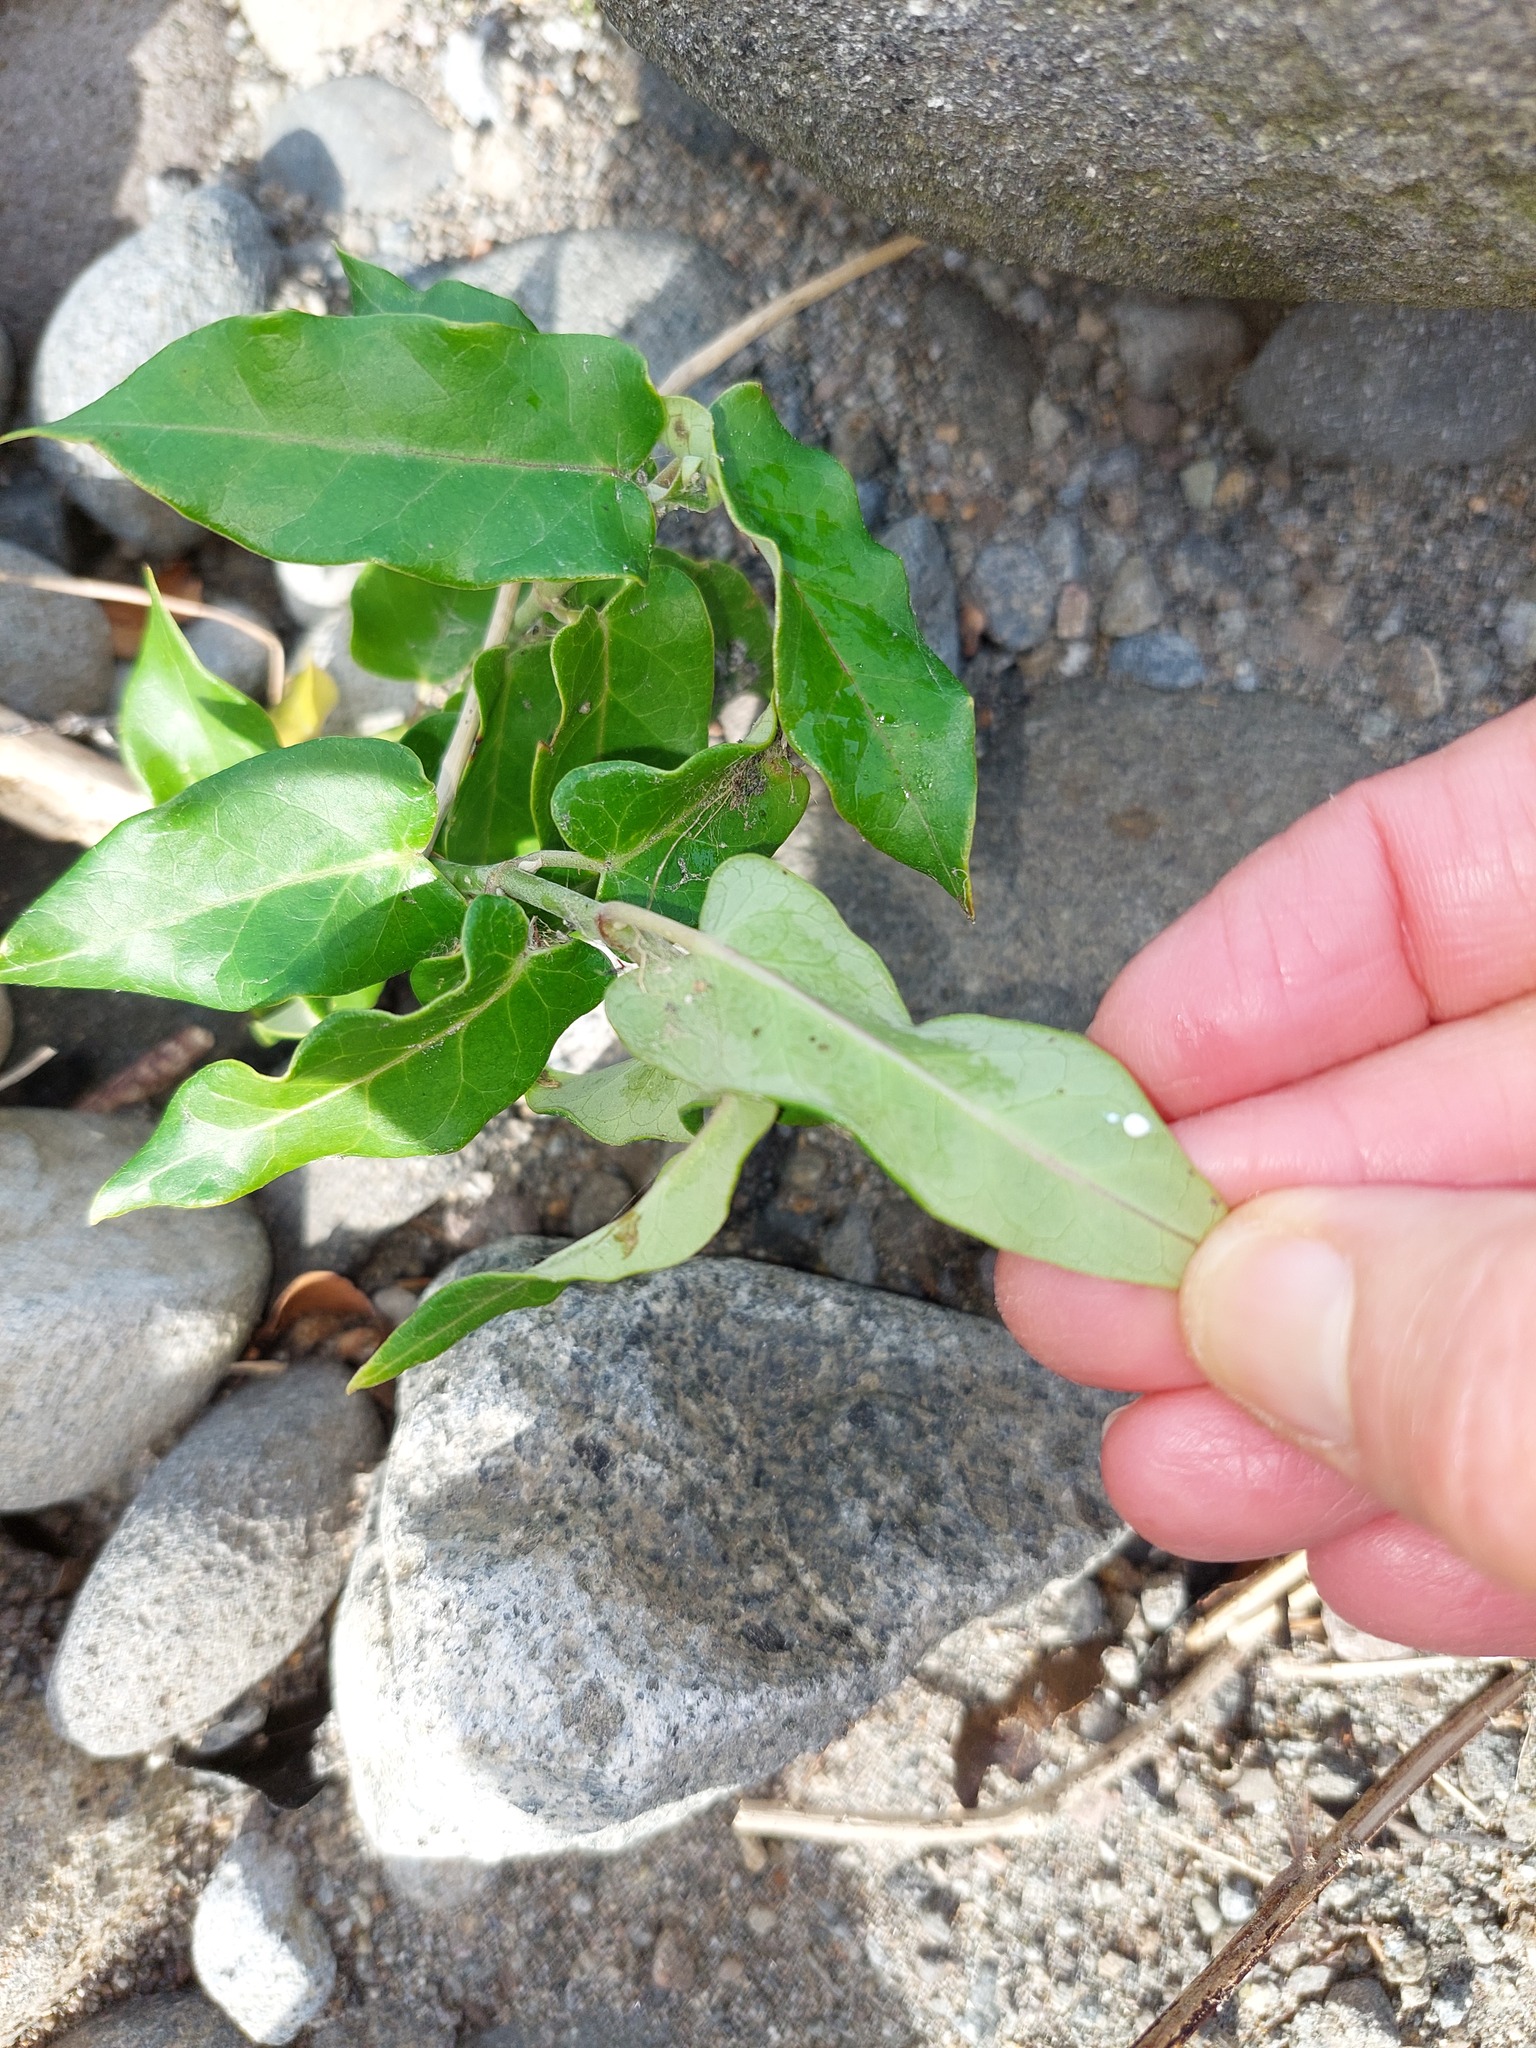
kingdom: Plantae
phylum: Tracheophyta
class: Magnoliopsida
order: Gentianales
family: Apocynaceae
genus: Araujia
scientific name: Araujia sericifera
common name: White bladderflower
